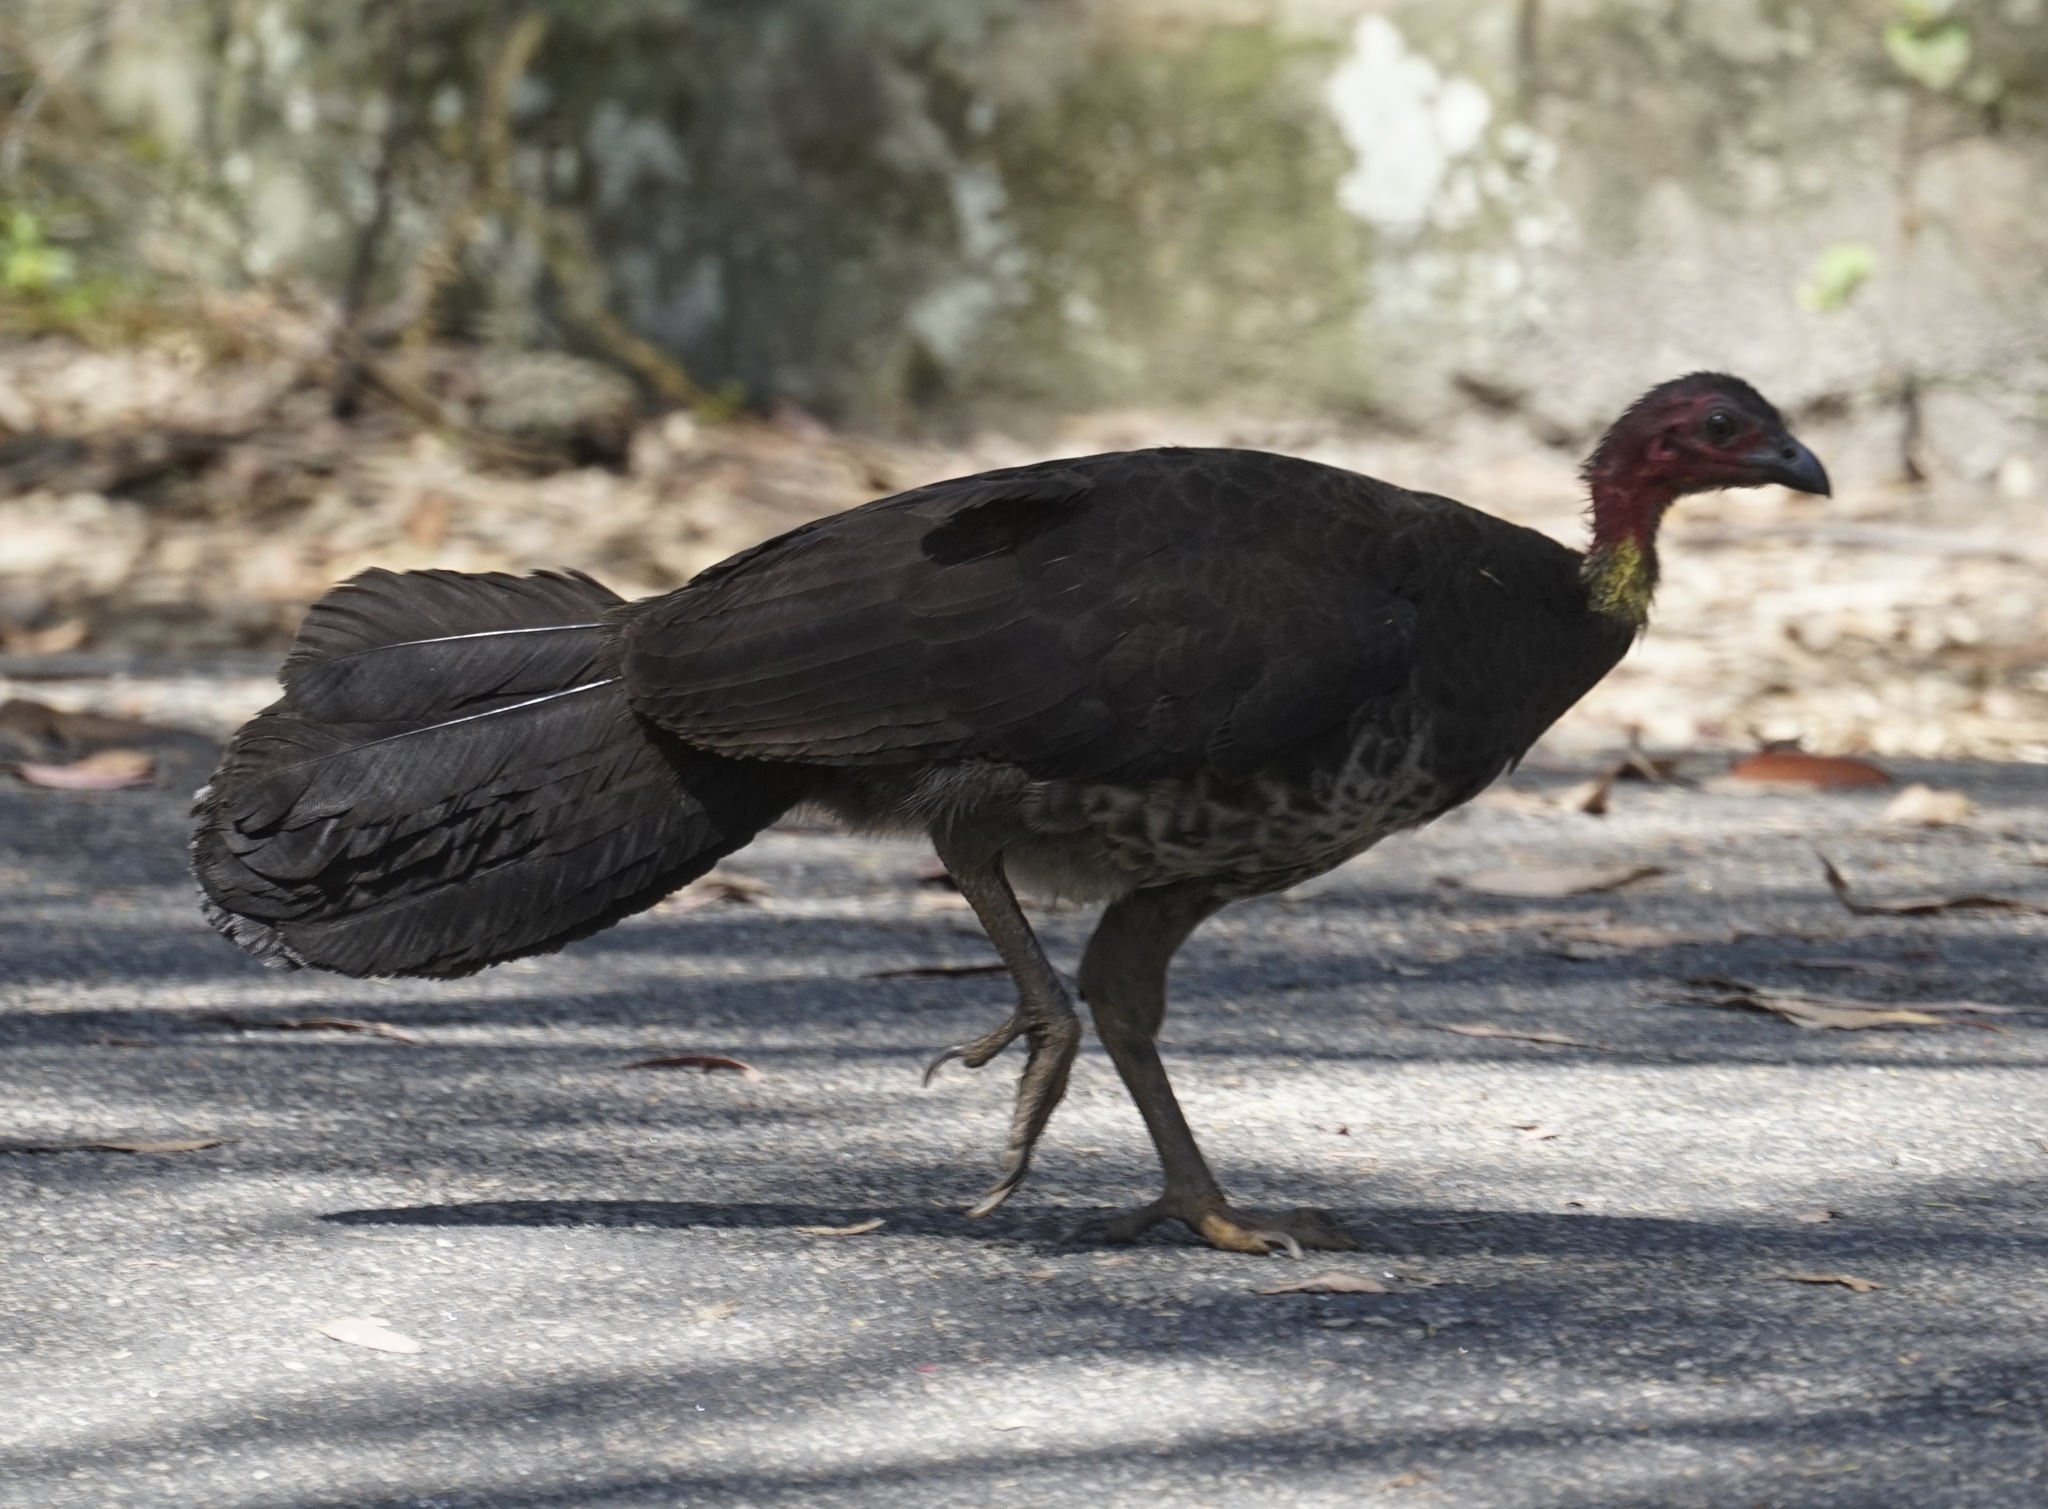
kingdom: Animalia
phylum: Chordata
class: Aves
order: Galliformes
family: Megapodiidae
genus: Alectura
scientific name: Alectura lathami
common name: Australian brushturkey
